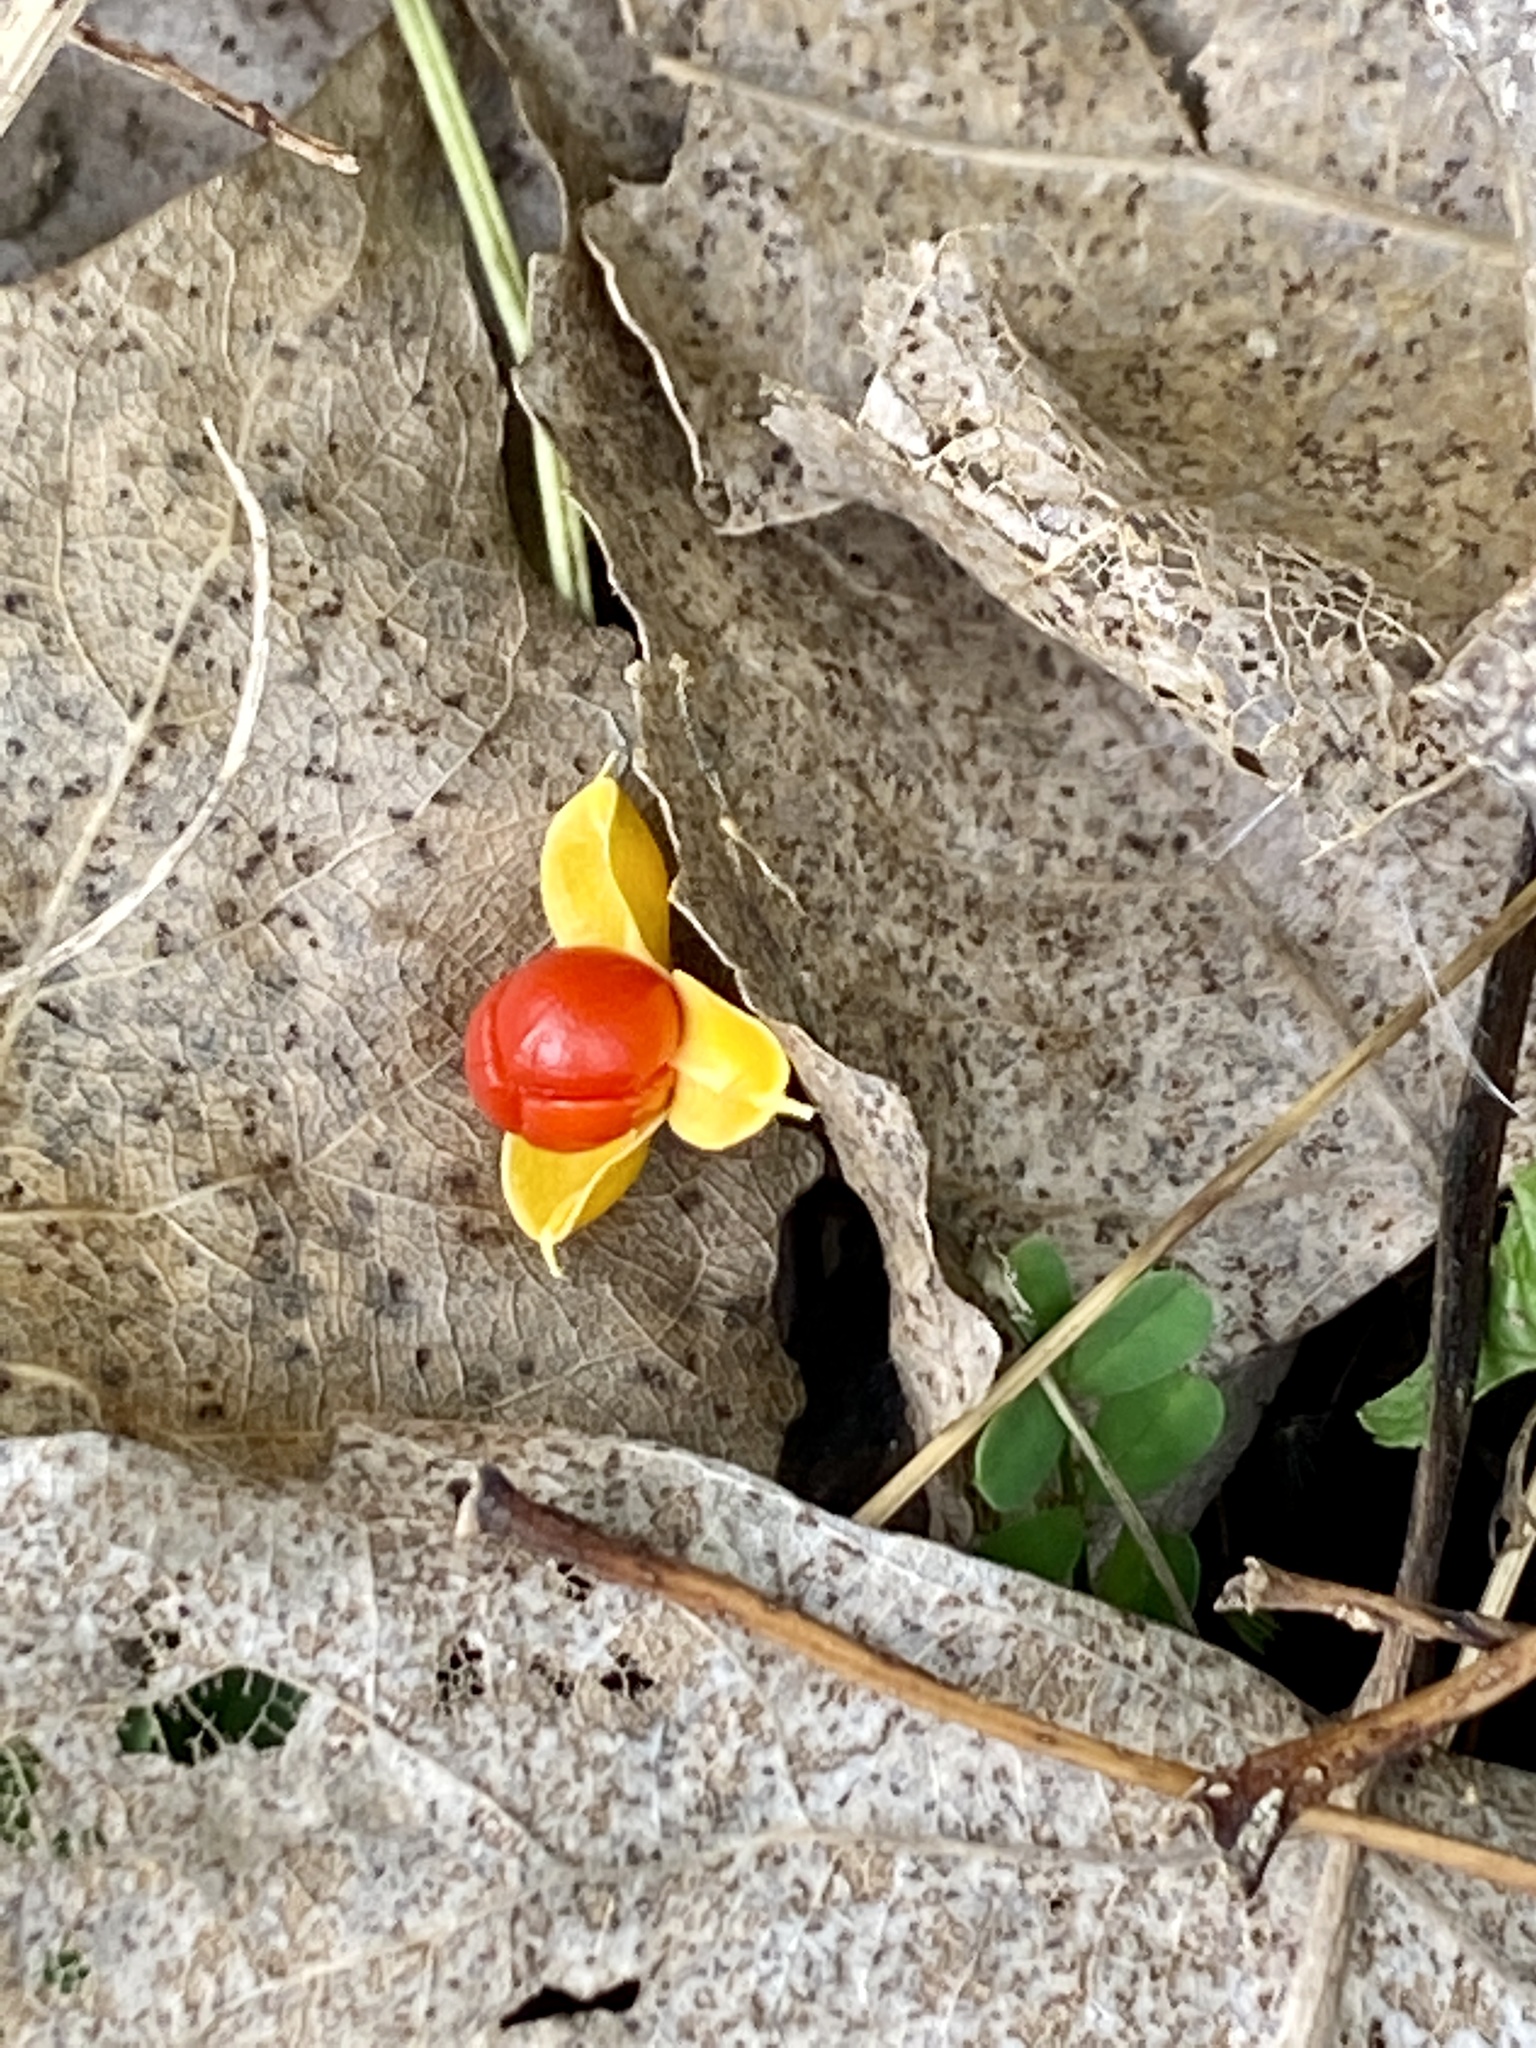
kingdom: Plantae
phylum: Tracheophyta
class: Magnoliopsida
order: Celastrales
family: Celastraceae
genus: Celastrus
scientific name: Celastrus orbiculatus
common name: Oriental bittersweet
